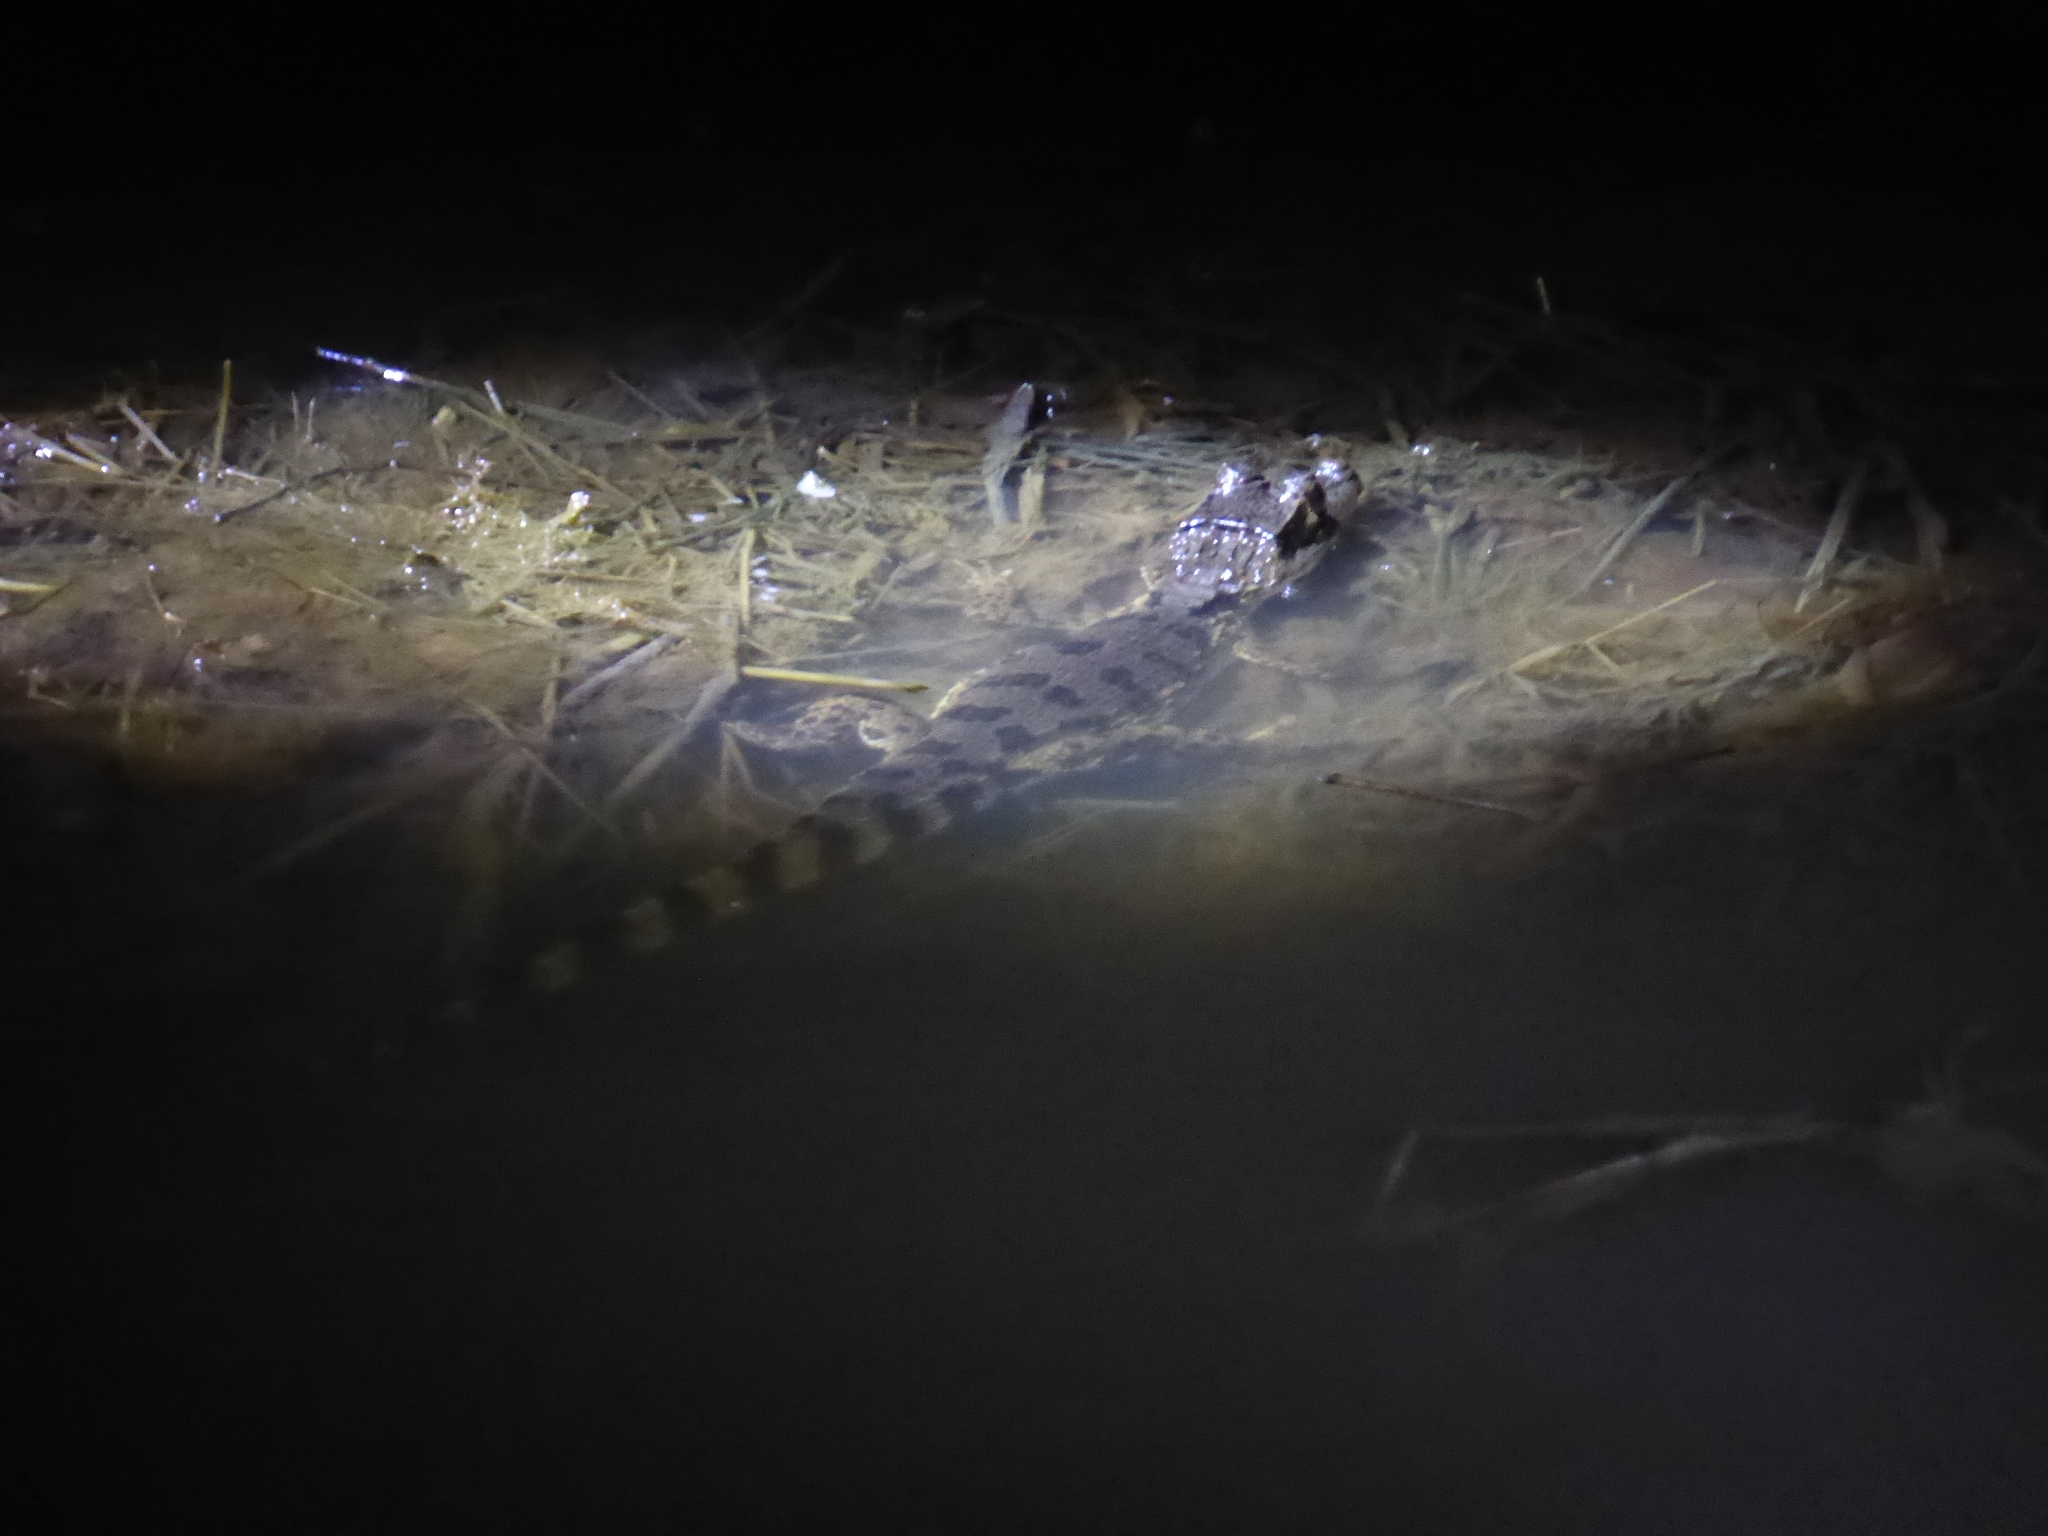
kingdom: Animalia
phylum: Chordata
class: Crocodylia
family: Alligatoridae
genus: Caiman
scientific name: Caiman crocodilus
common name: Common caiman
